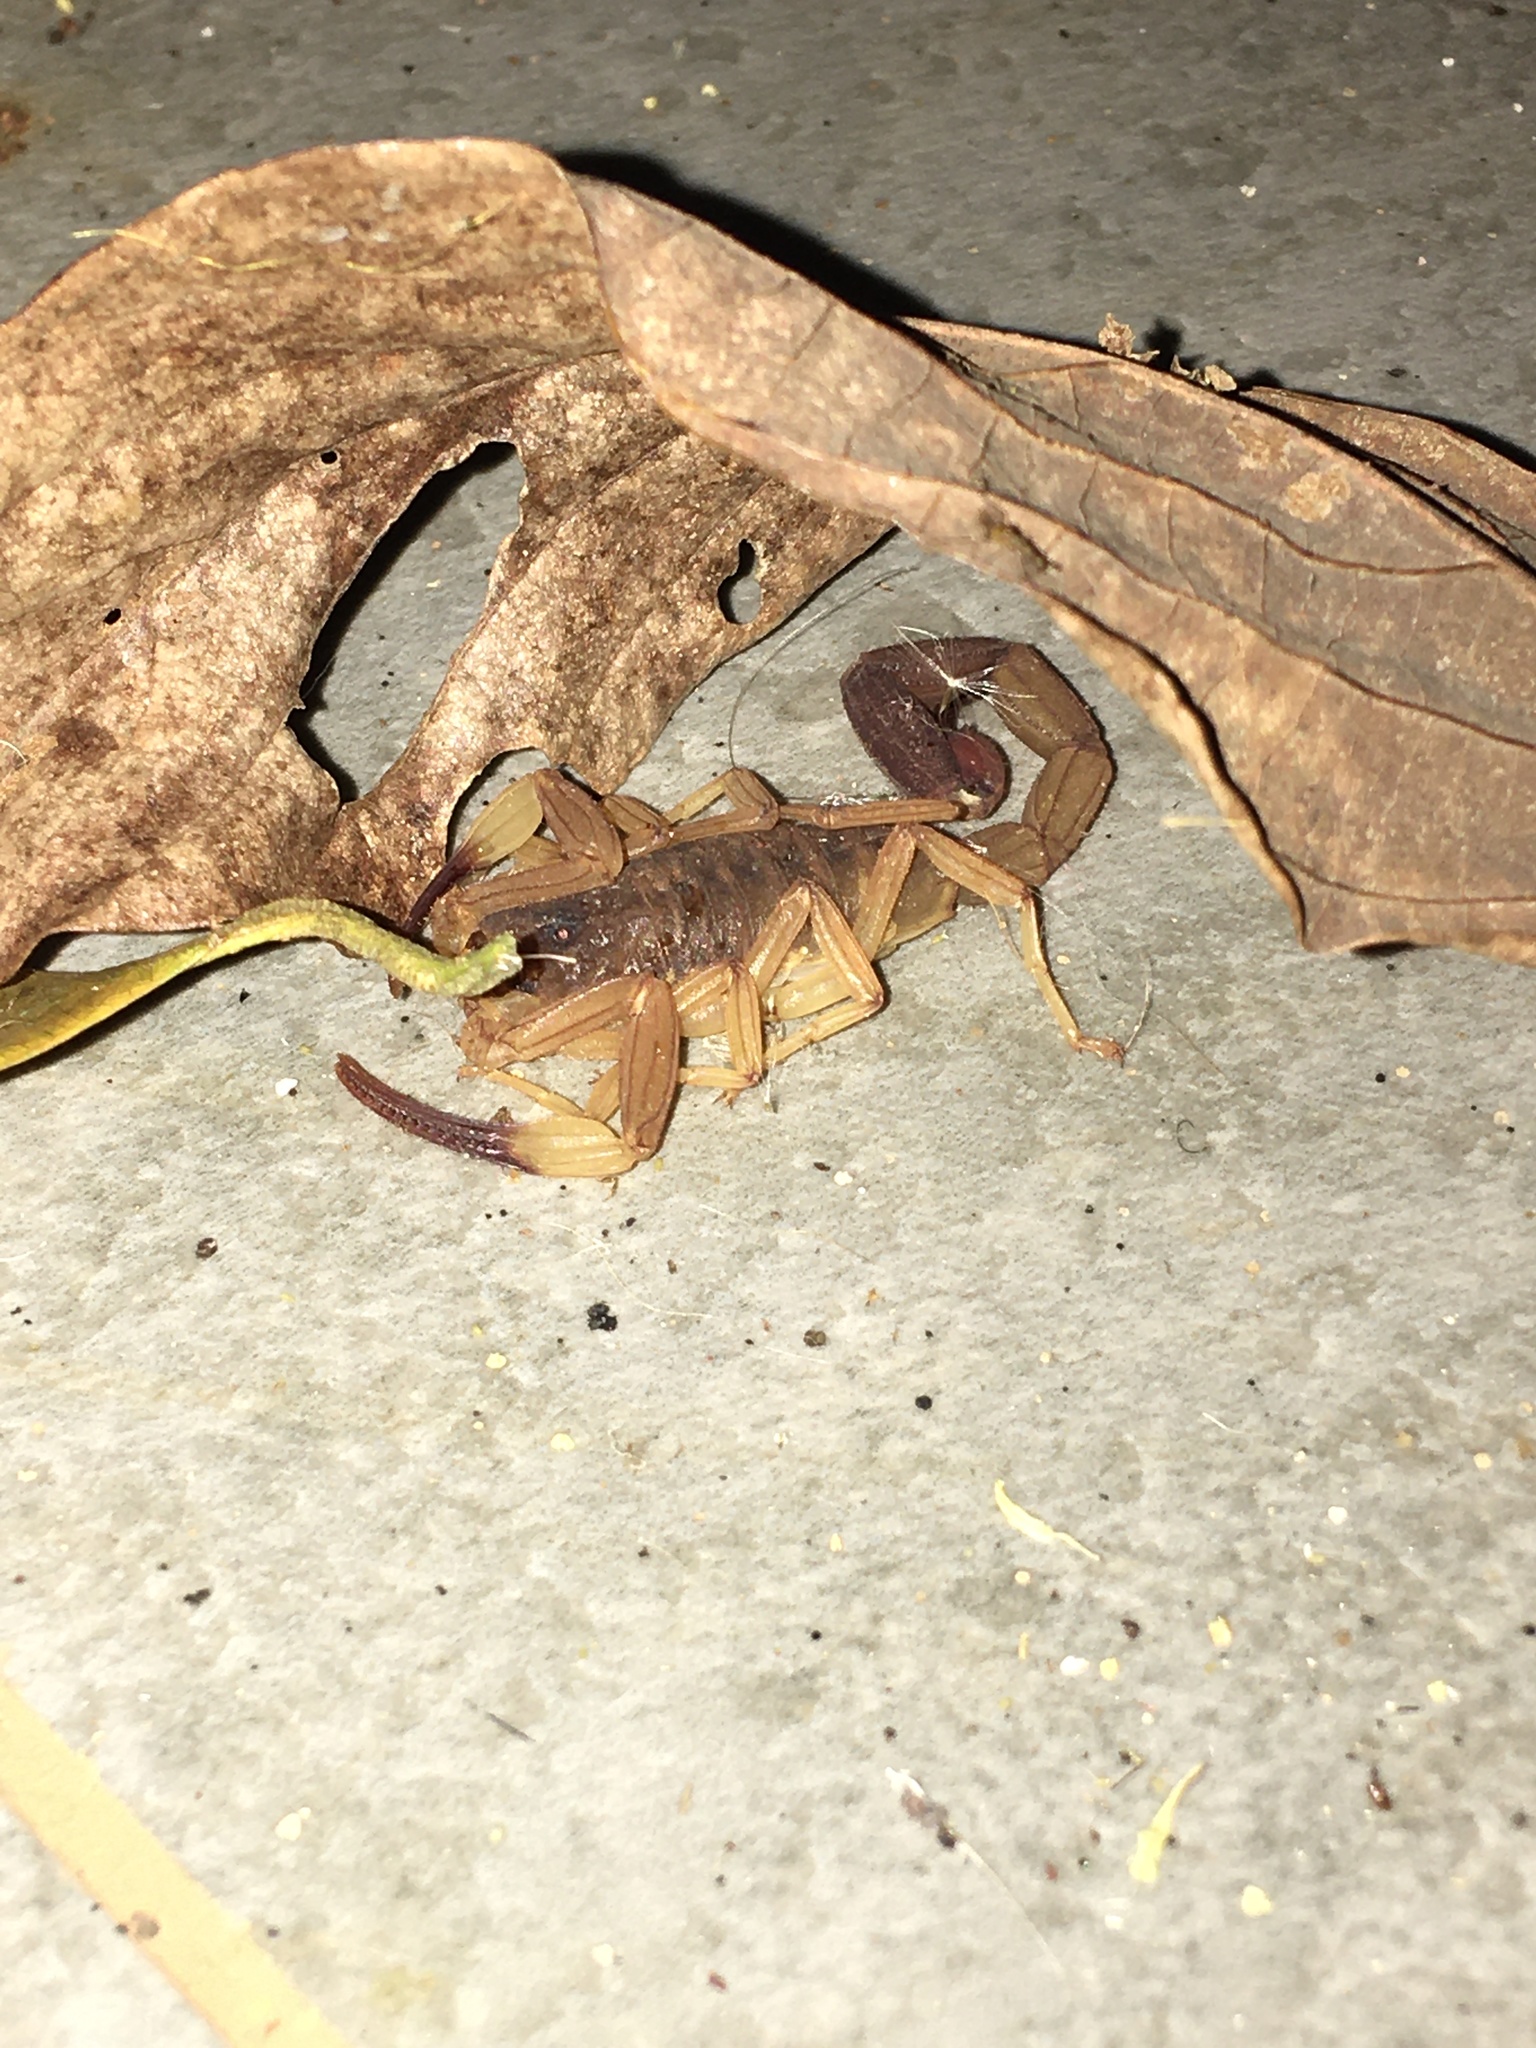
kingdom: Animalia
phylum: Arthropoda
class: Arachnida
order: Scorpiones
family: Buthidae
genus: Tityus
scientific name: Tityus confluens
